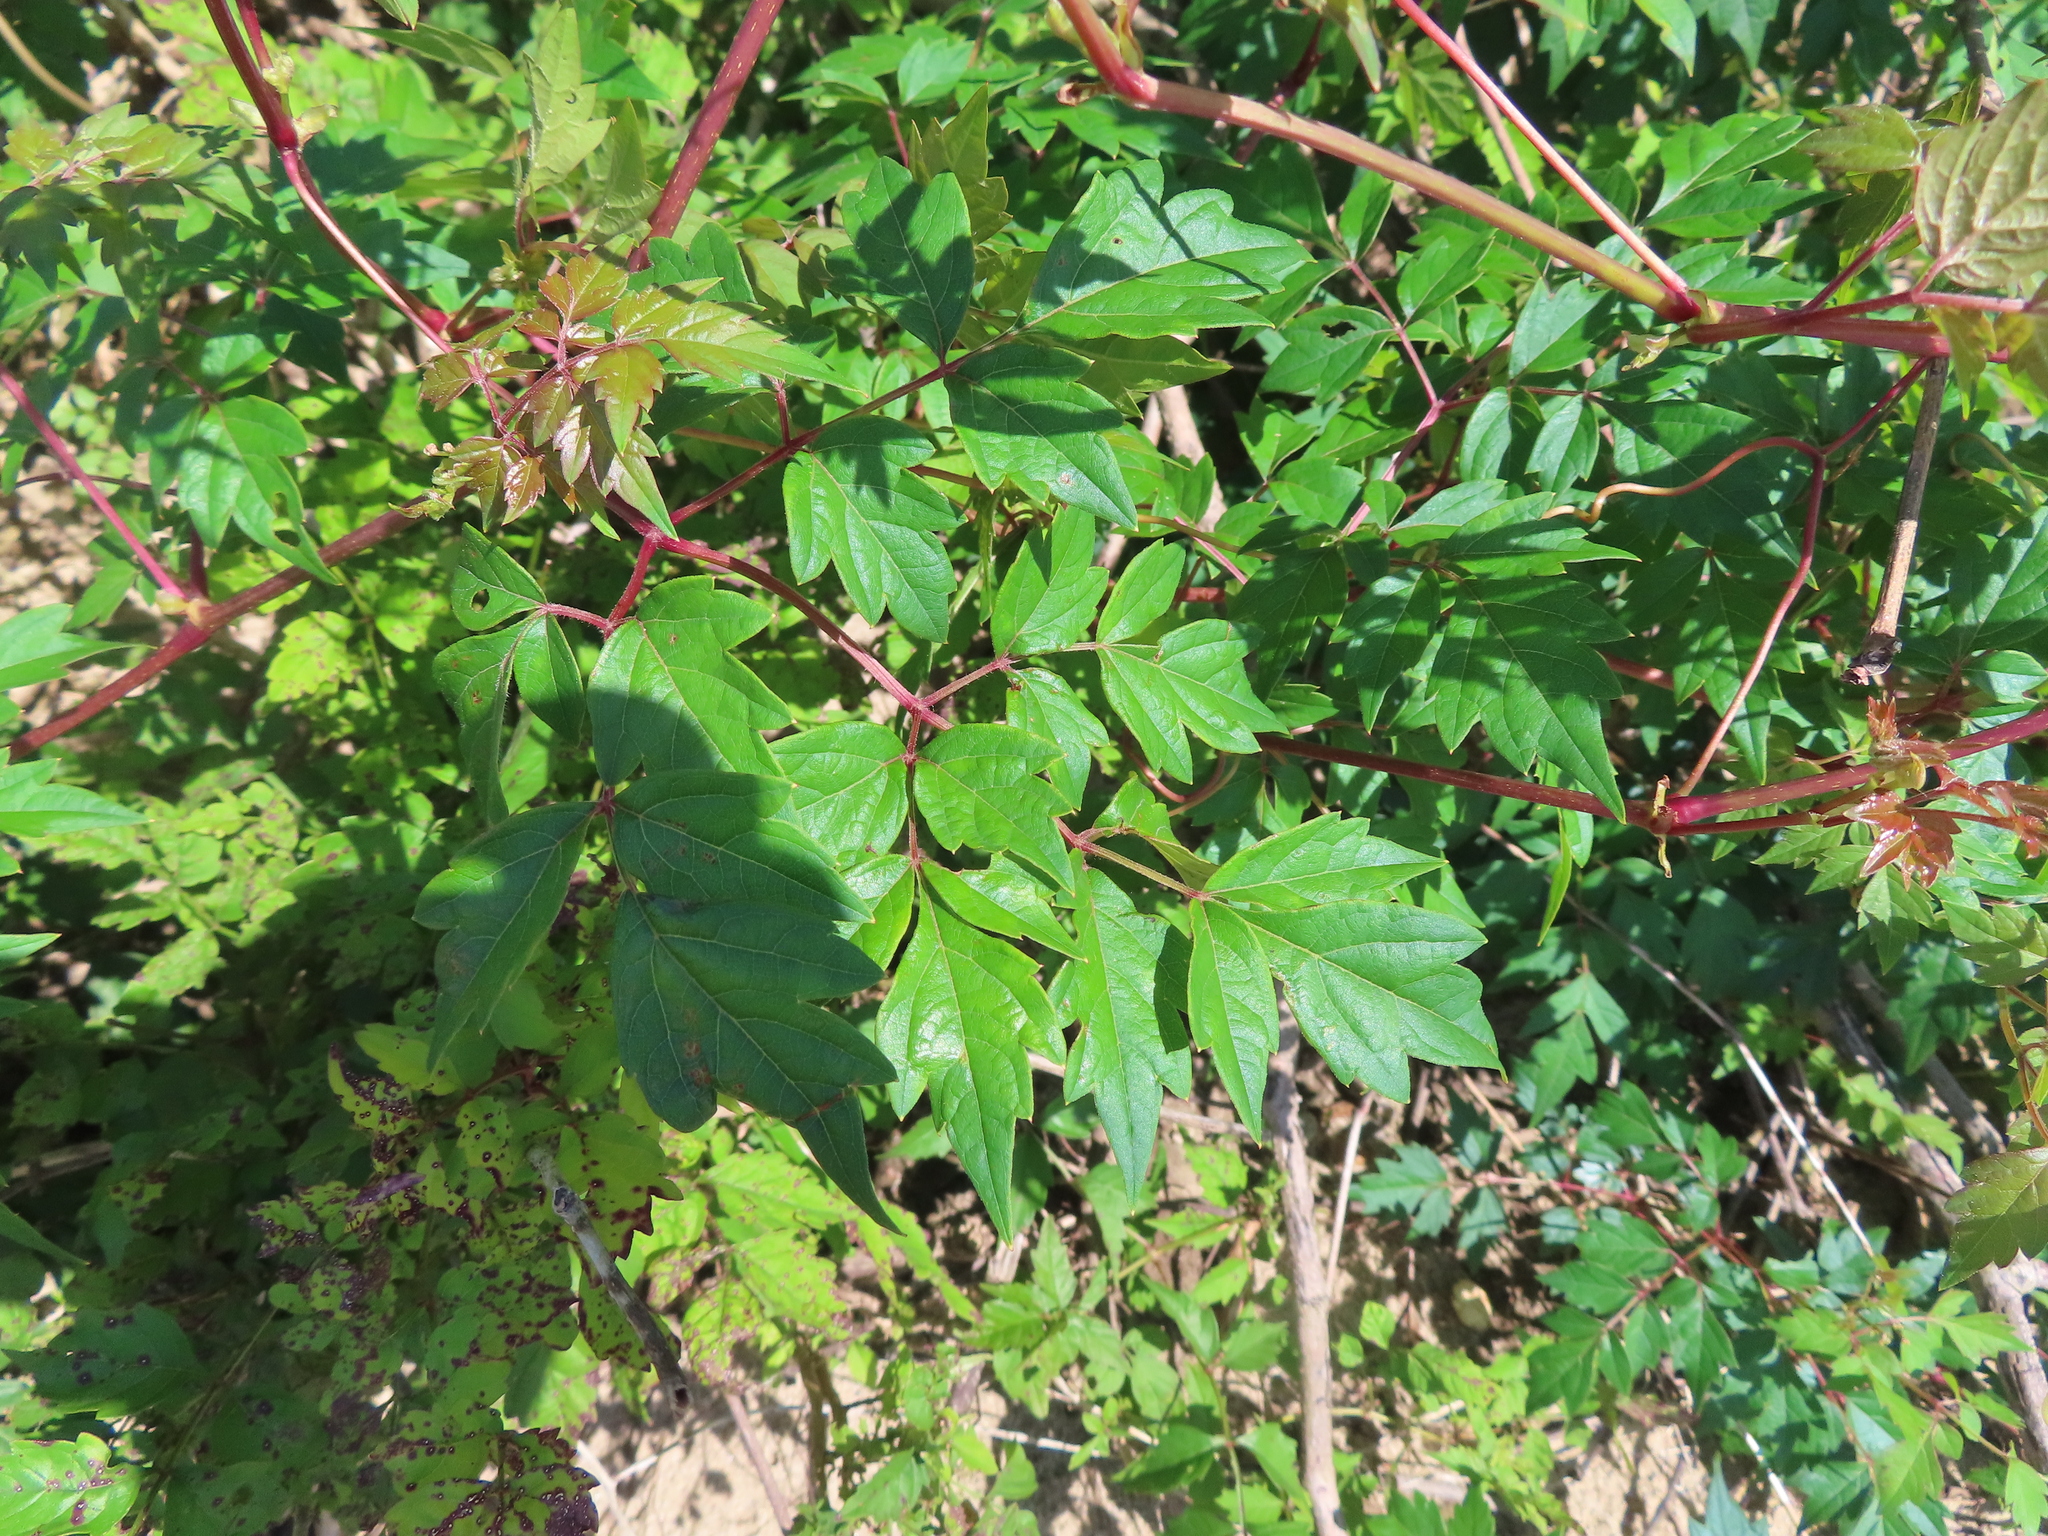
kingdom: Plantae
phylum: Tracheophyta
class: Magnoliopsida
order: Vitales
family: Vitaceae
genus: Nekemias
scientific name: Nekemias arborea
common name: Peppervine
